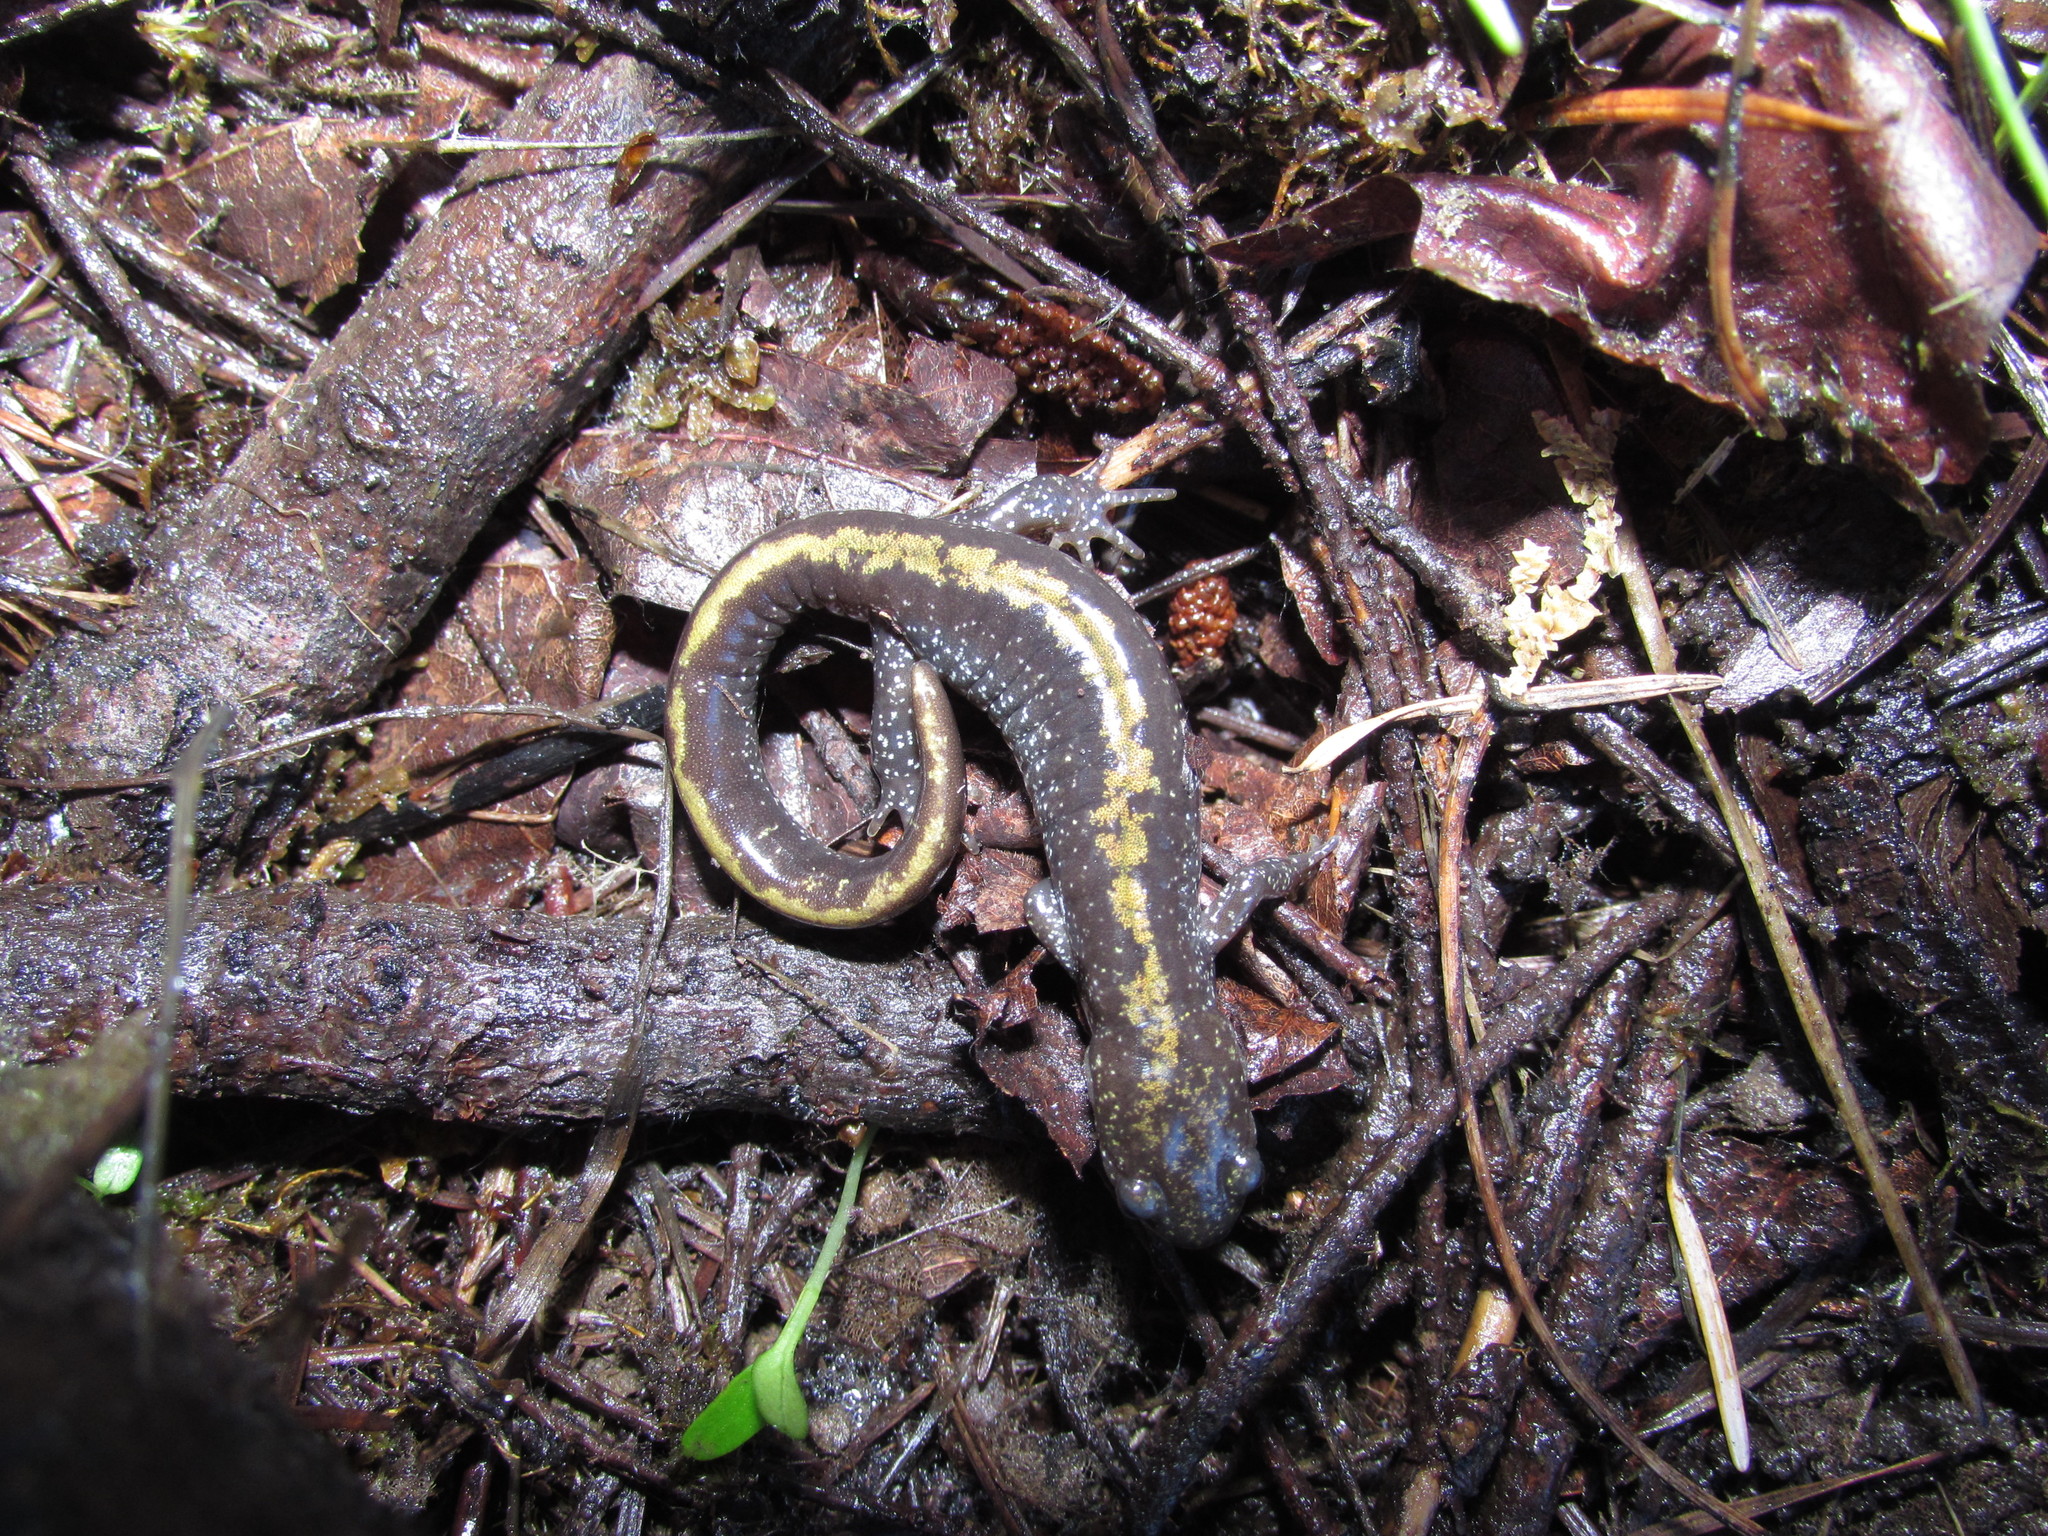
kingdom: Animalia
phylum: Chordata
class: Amphibia
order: Caudata
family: Ambystomatidae
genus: Ambystoma
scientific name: Ambystoma macrodactylum
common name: Long-toed salamander
